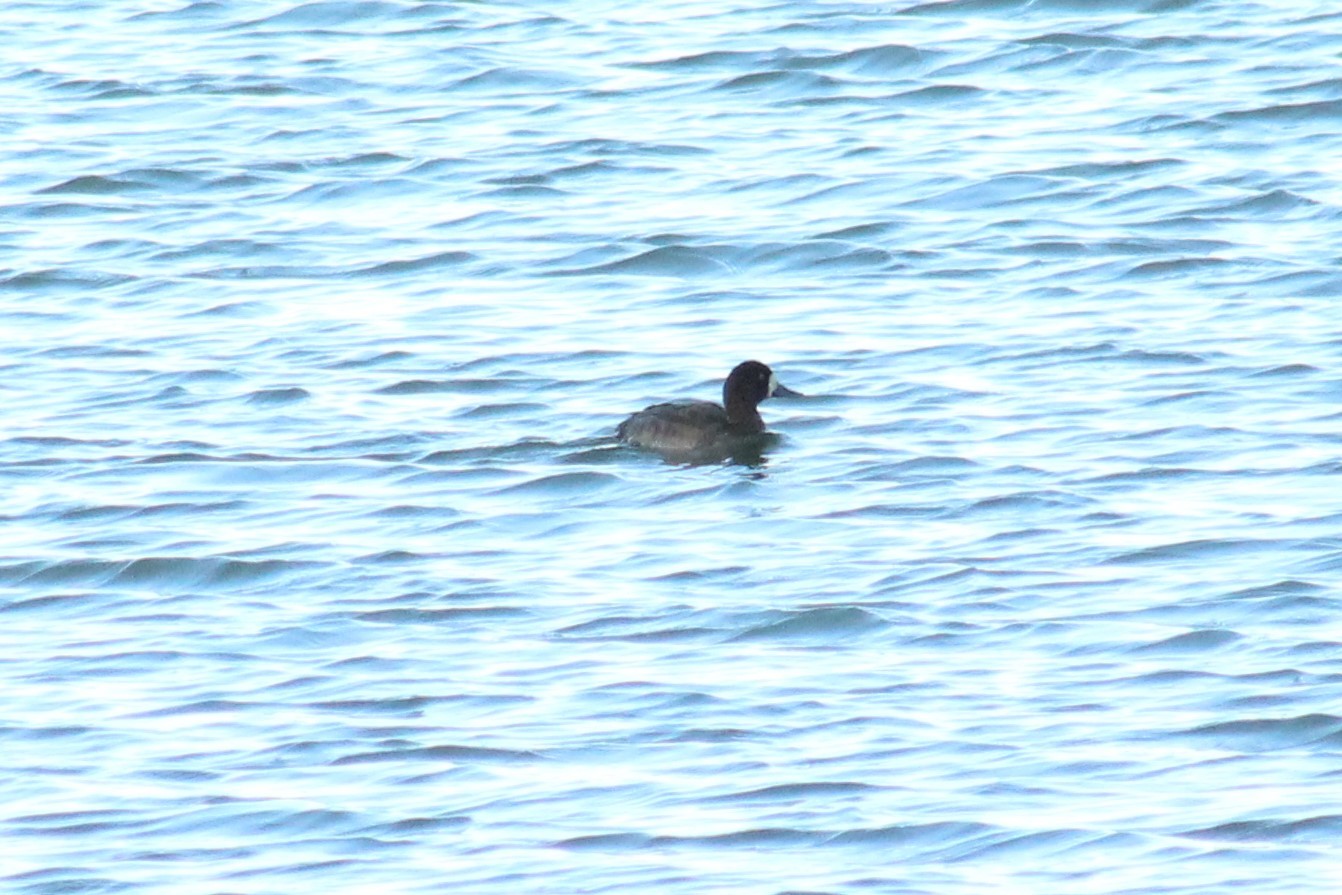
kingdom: Animalia
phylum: Chordata
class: Aves
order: Anseriformes
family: Anatidae
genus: Aythya
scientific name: Aythya marila
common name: Greater scaup
